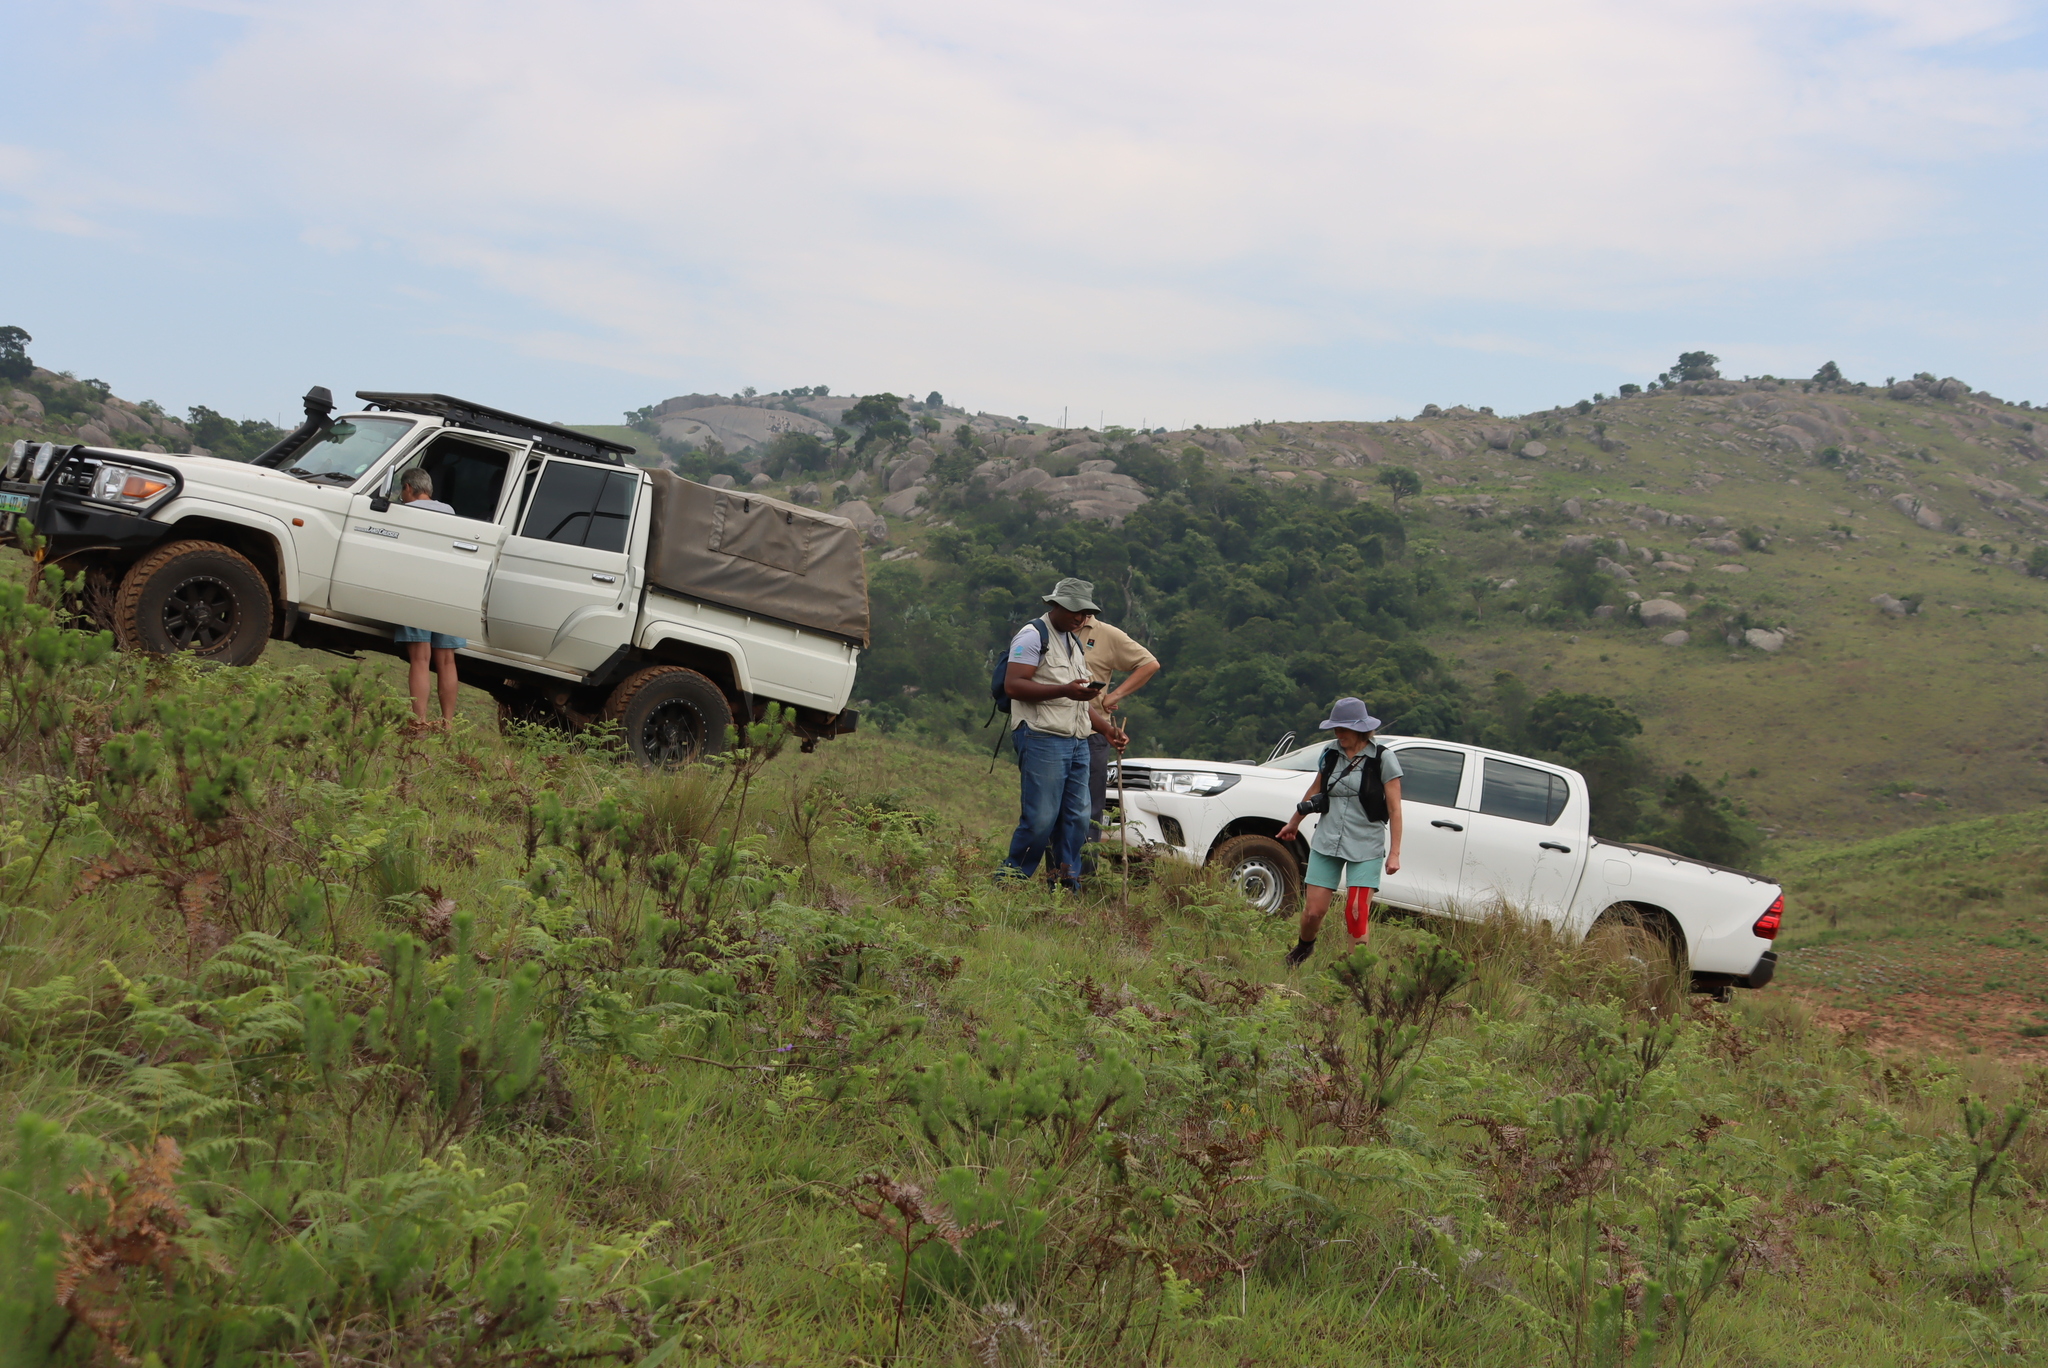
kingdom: Plantae
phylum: Tracheophyta
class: Polypodiopsida
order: Polypodiales
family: Dennstaedtiaceae
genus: Pteridium
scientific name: Pteridium aquilinum
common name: Bracken
